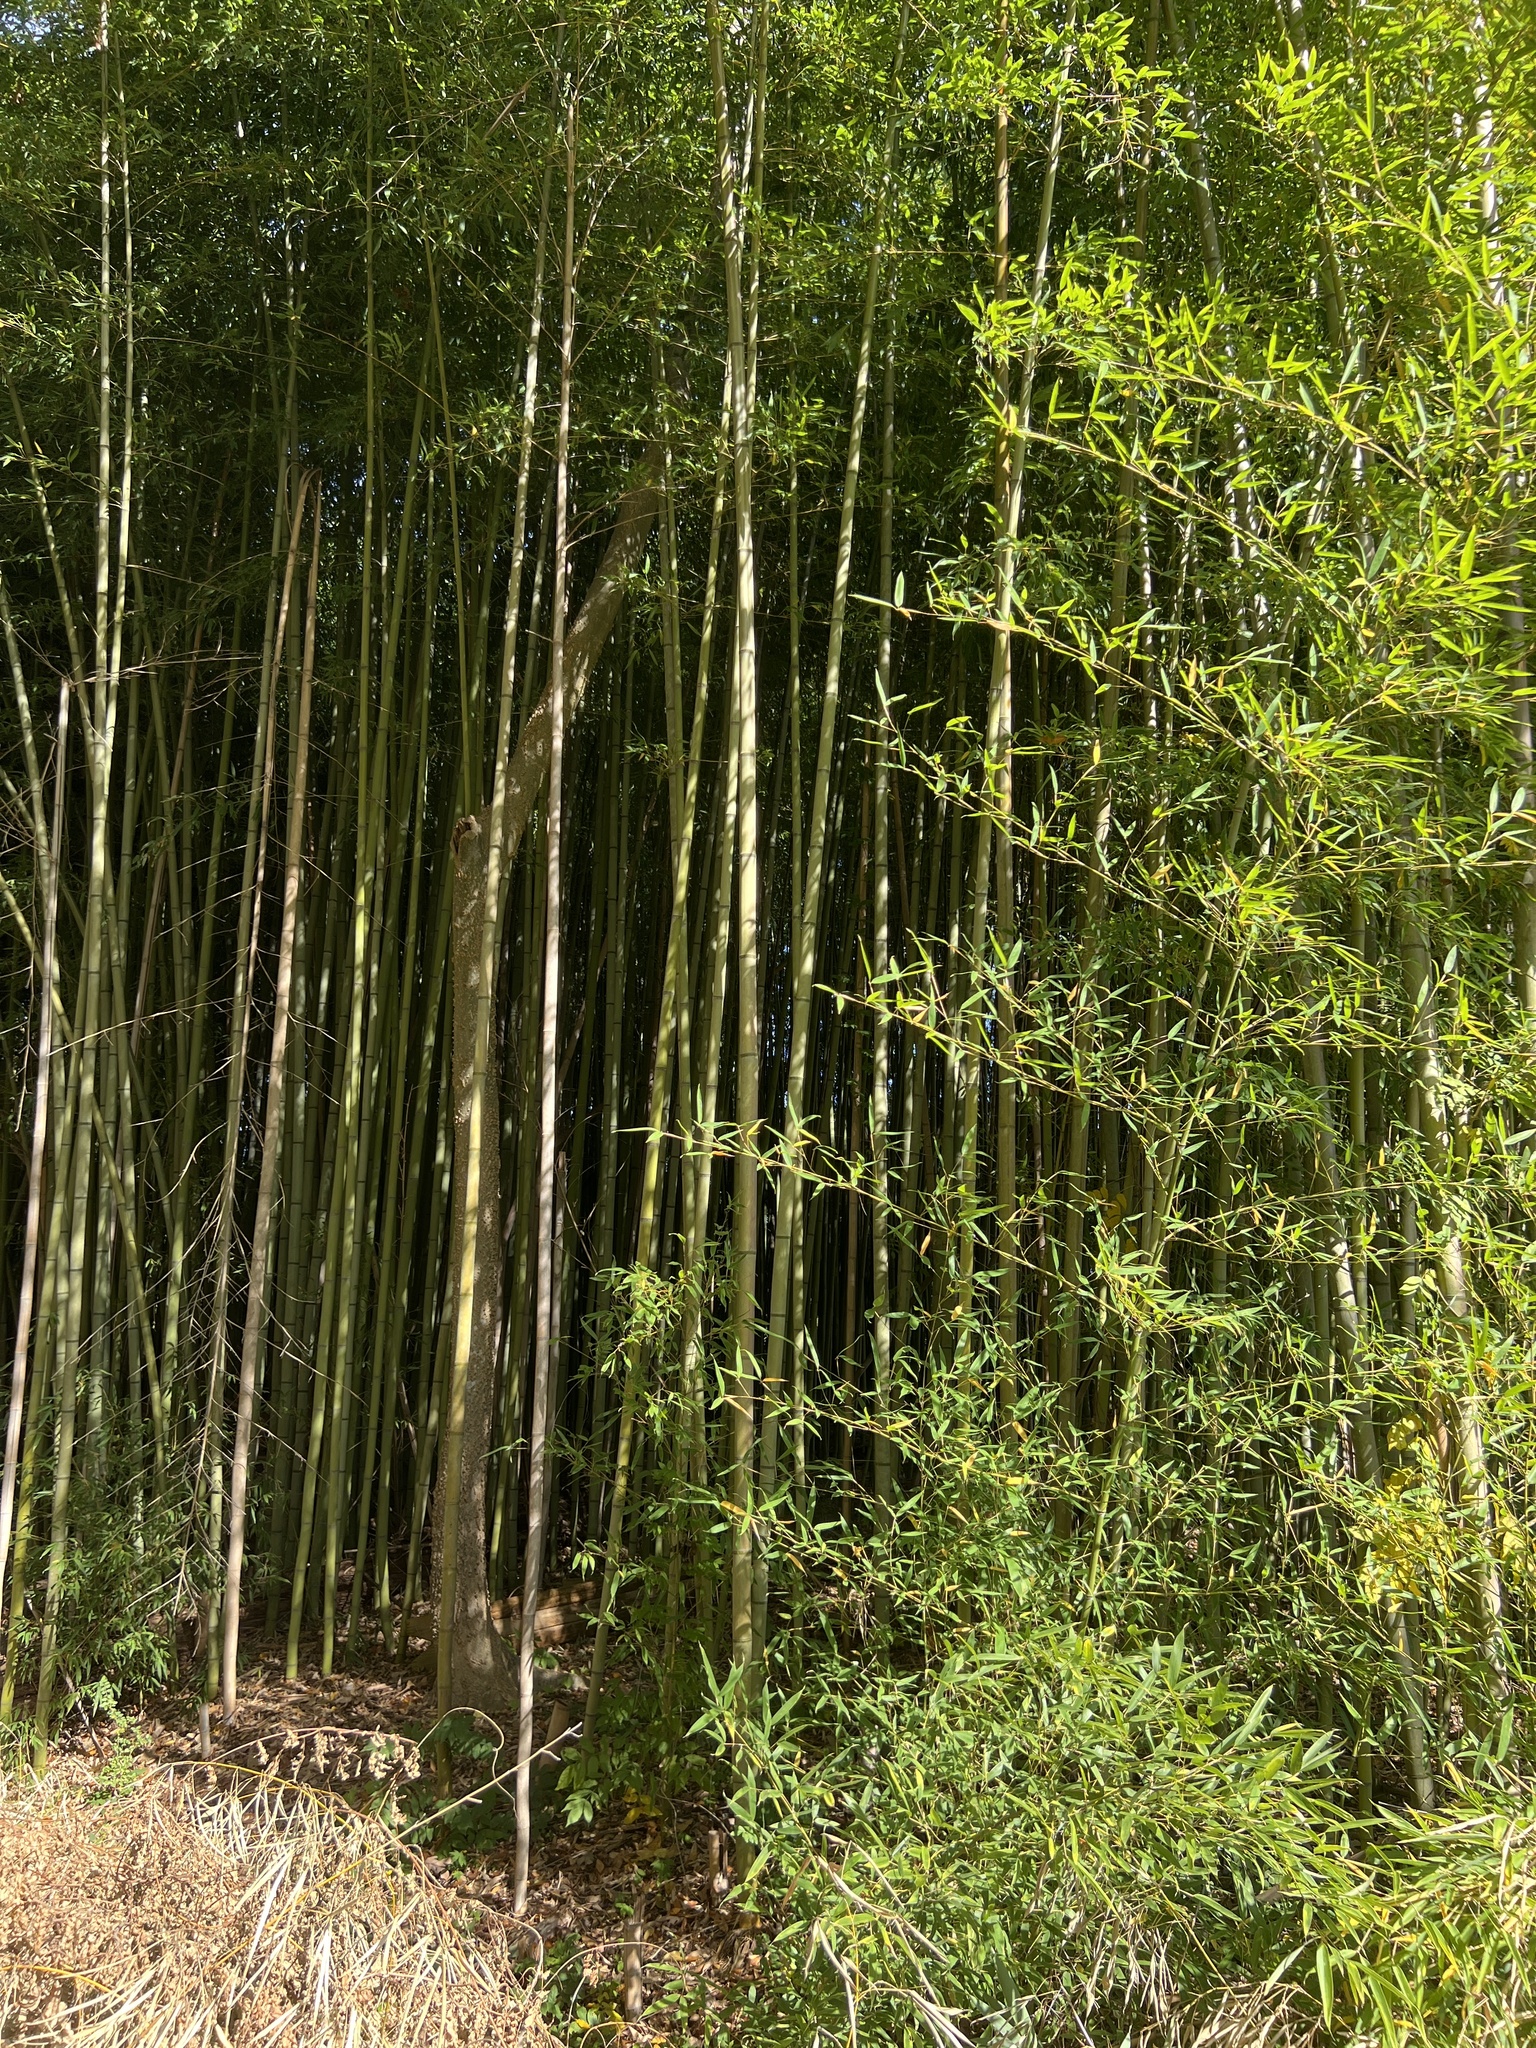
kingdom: Plantae
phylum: Tracheophyta
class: Liliopsida
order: Poales
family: Poaceae
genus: Phyllostachys
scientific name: Phyllostachys aurea
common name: Golden bamboo
